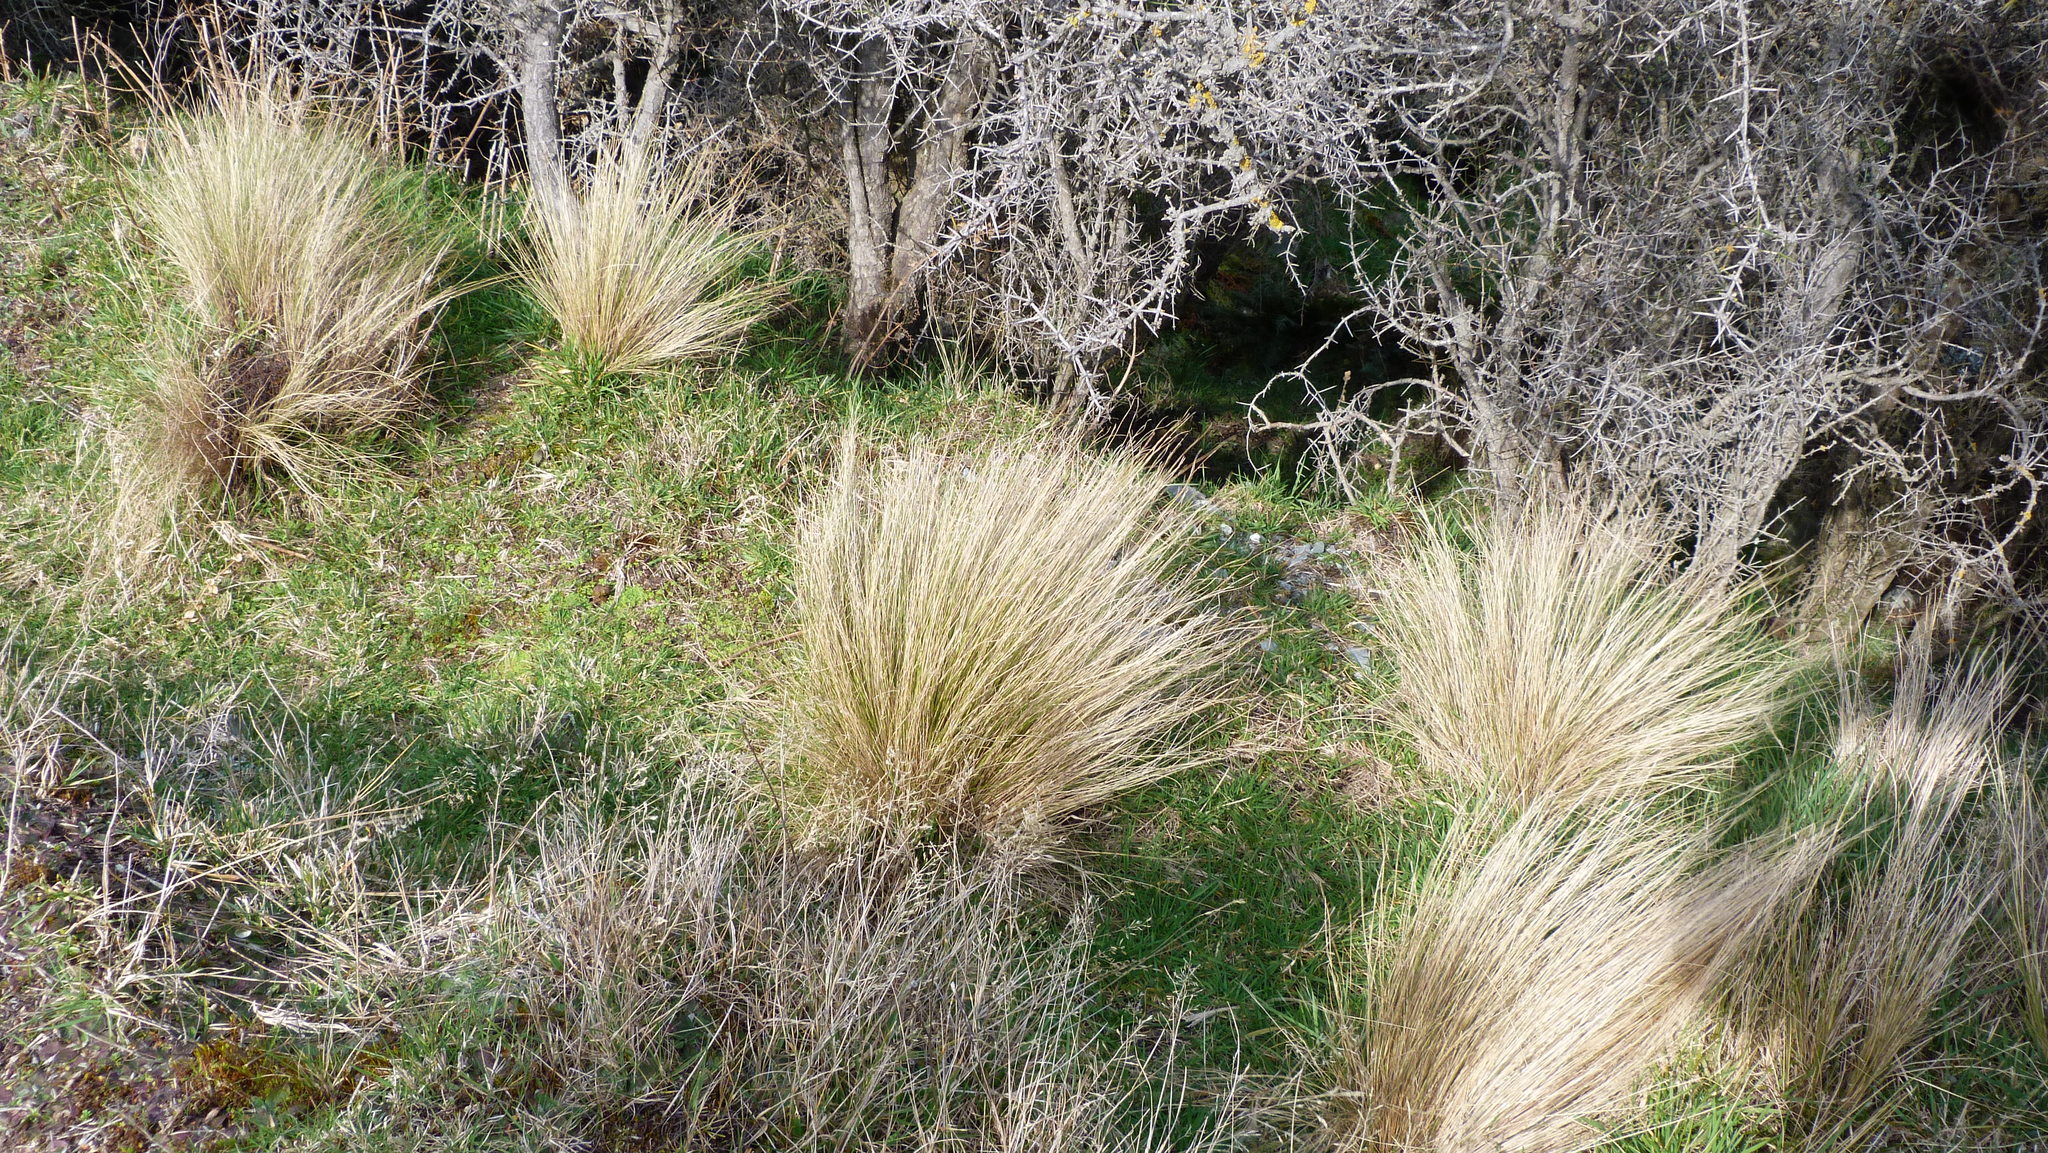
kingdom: Plantae
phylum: Tracheophyta
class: Liliopsida
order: Poales
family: Poaceae
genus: Festuca
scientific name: Festuca novae-zelandiae
